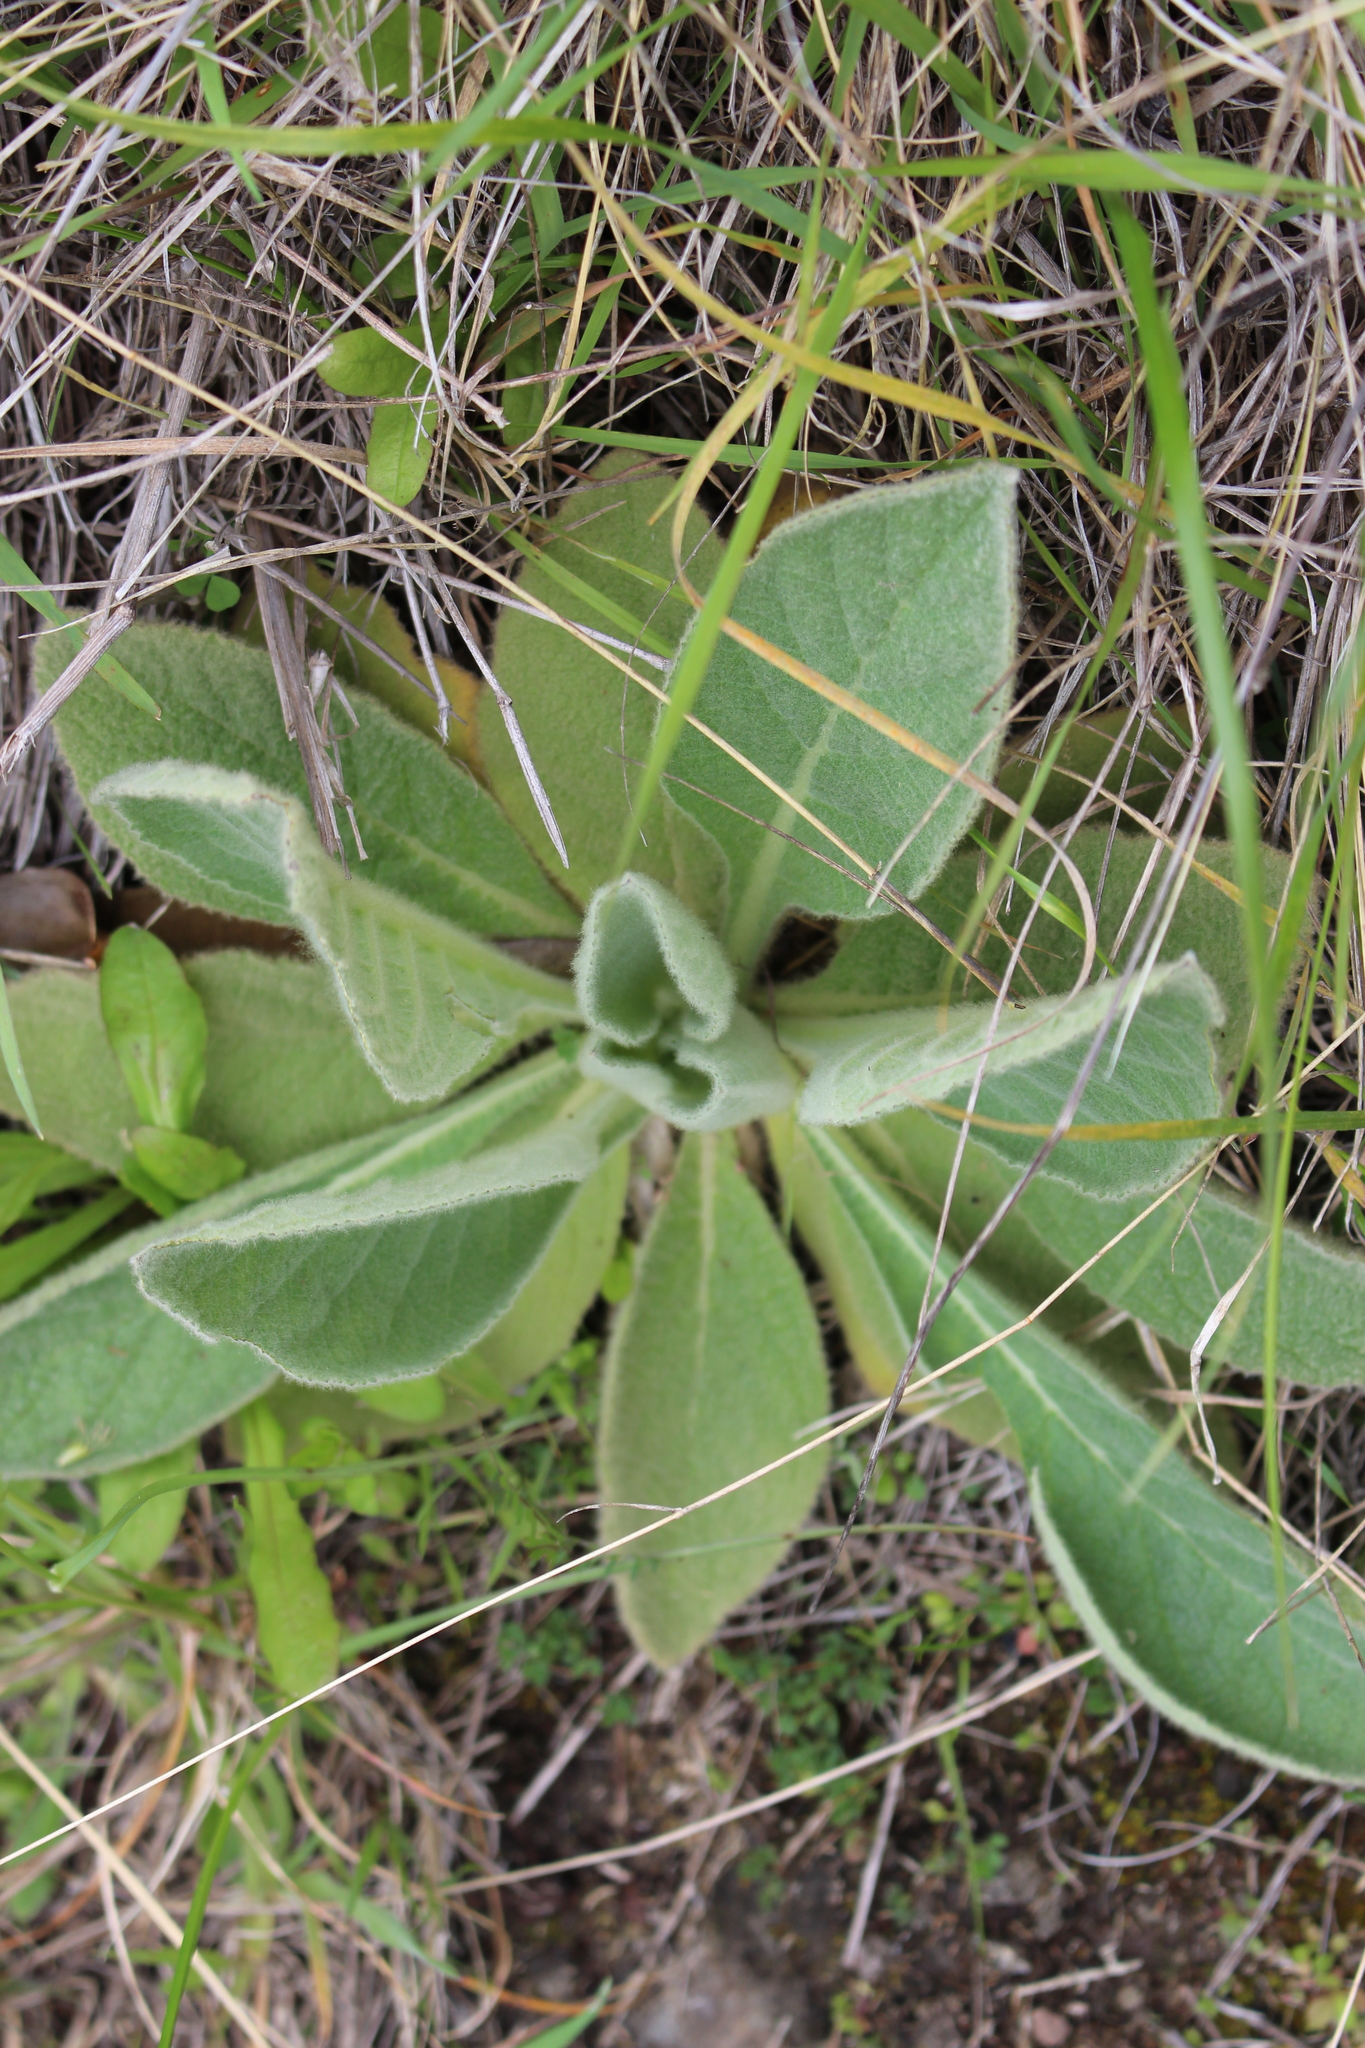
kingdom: Plantae
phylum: Tracheophyta
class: Magnoliopsida
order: Lamiales
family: Scrophulariaceae
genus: Verbascum
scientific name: Verbascum thapsus
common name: Common mullein
